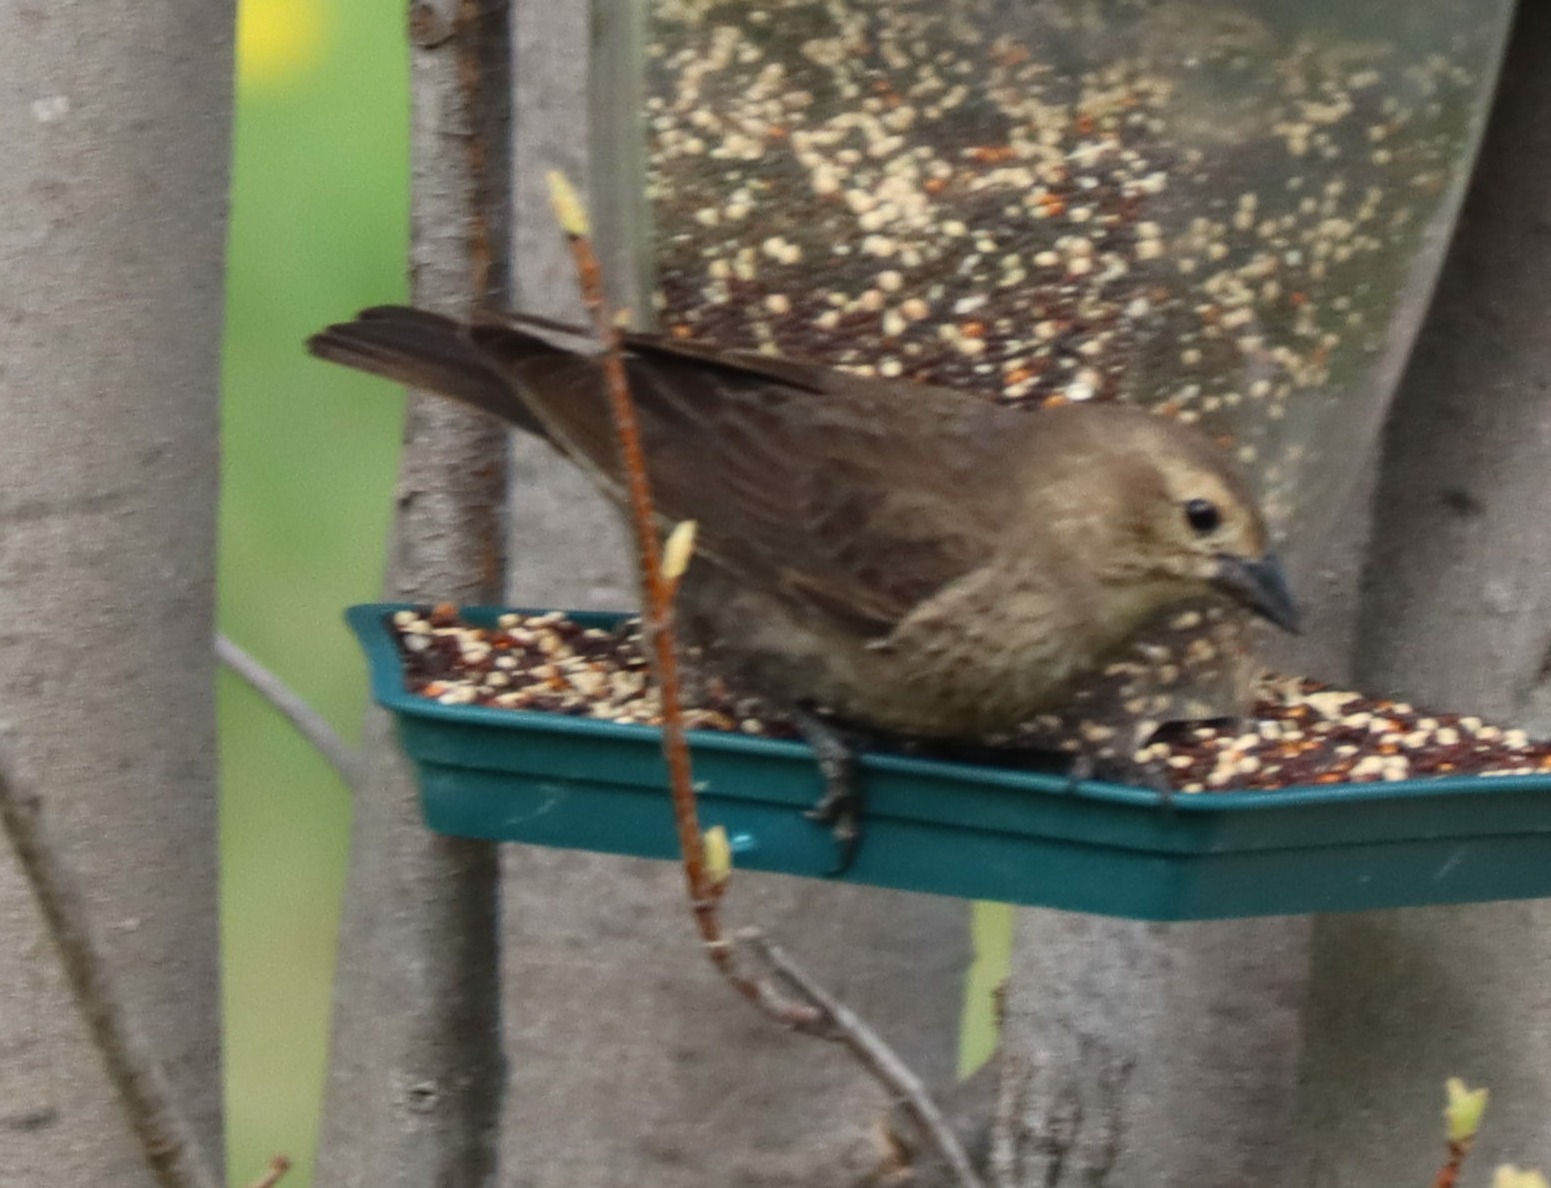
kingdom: Animalia
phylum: Chordata
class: Aves
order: Passeriformes
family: Icteridae
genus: Molothrus
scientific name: Molothrus ater
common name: Brown-headed cowbird
